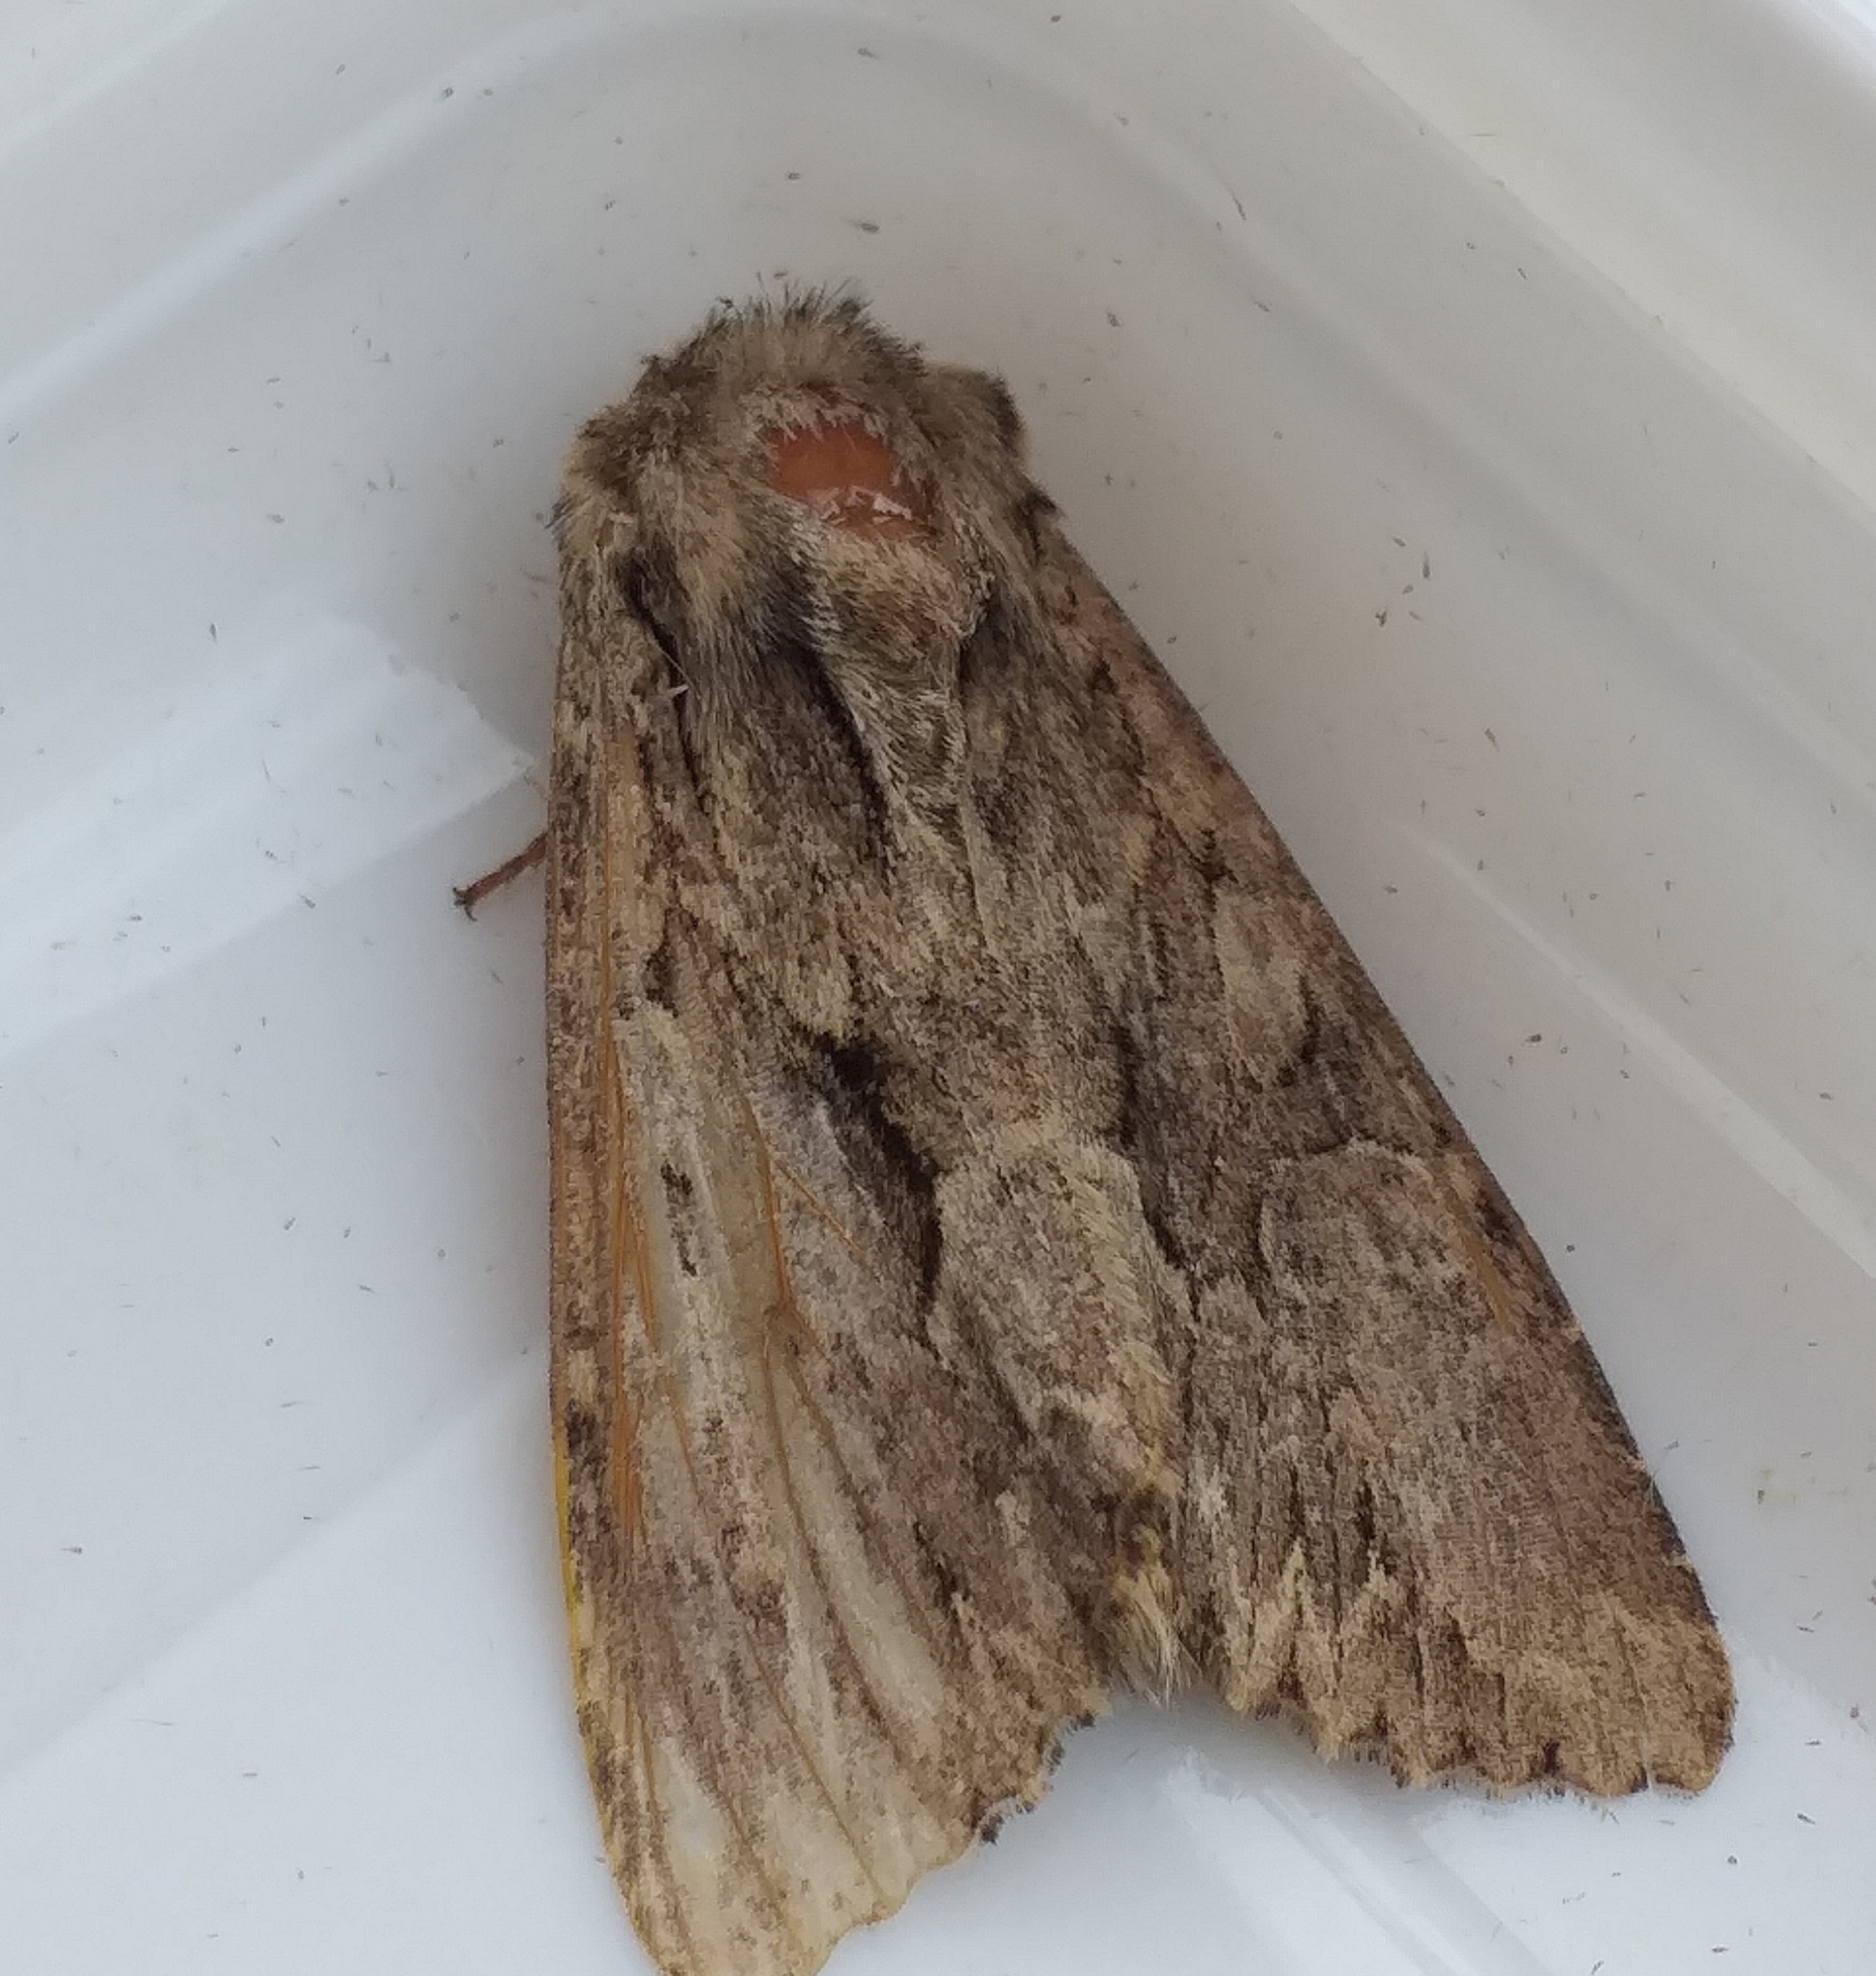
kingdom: Animalia
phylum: Arthropoda
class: Insecta
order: Lepidoptera
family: Noctuidae
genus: Apamea
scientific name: Apamea monoglypha
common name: Dark arches
